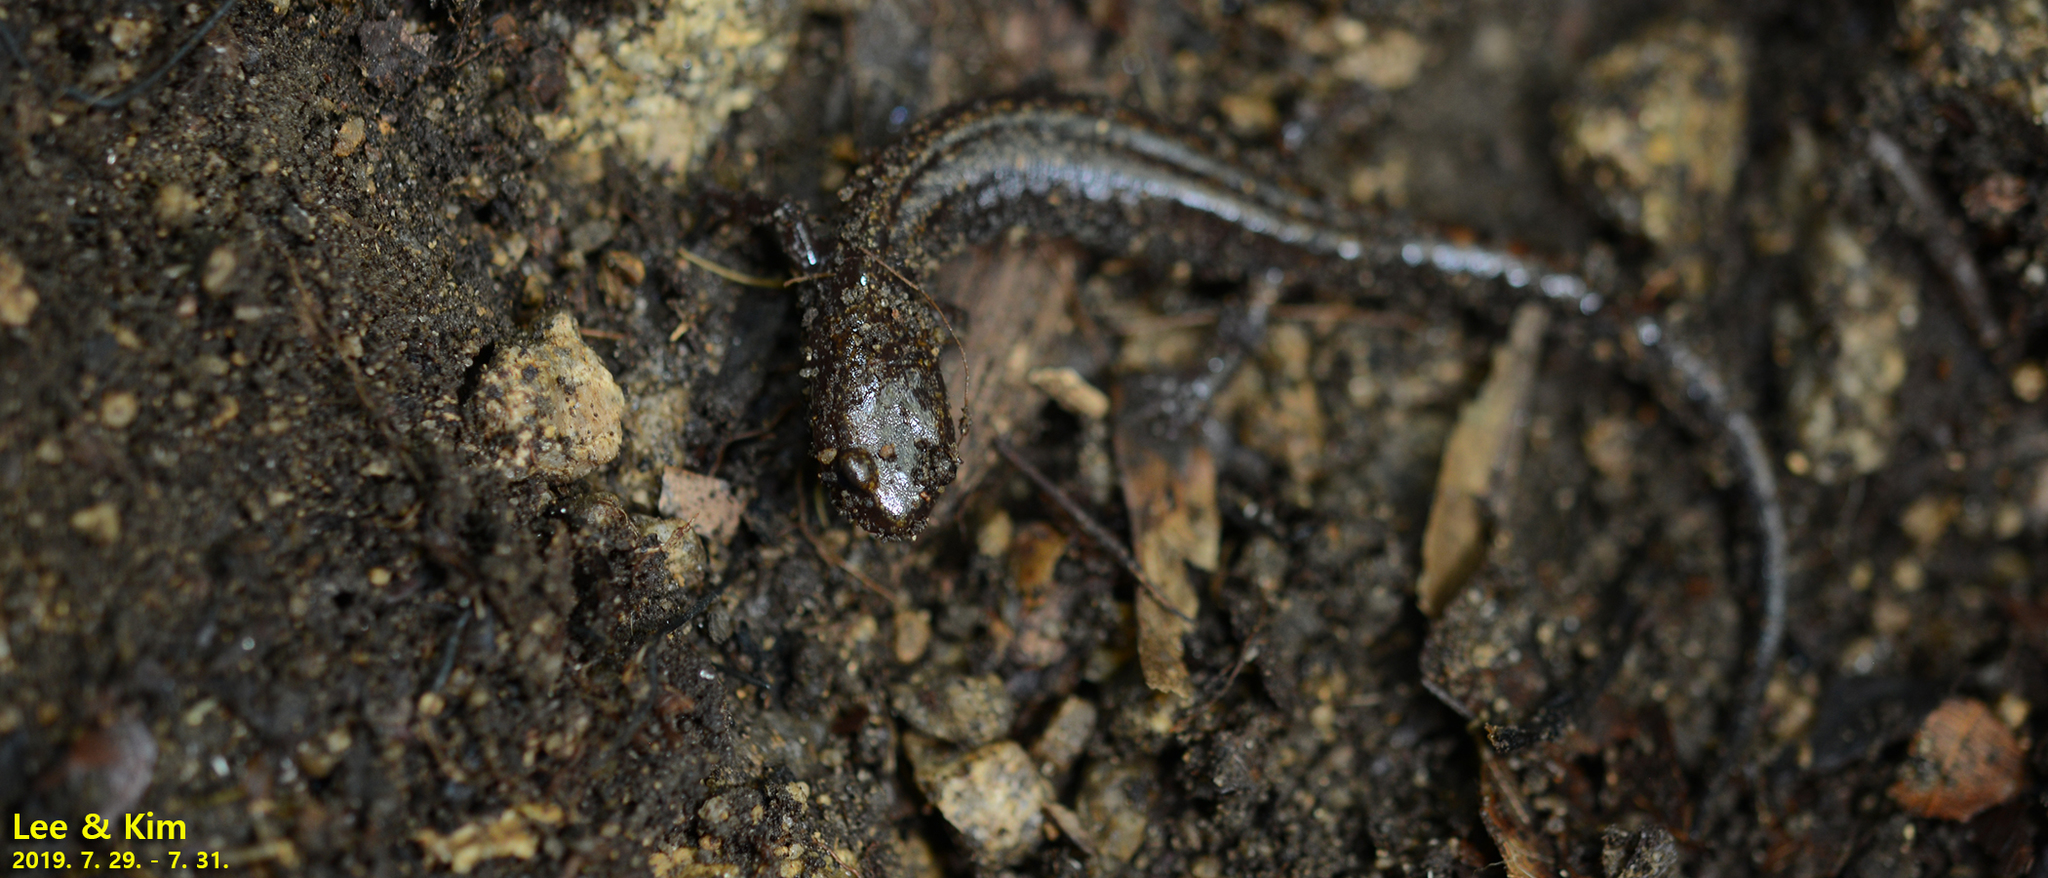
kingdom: Animalia
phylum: Chordata
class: Amphibia
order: Caudata
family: Plethodontidae
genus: Karsenia
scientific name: Karsenia koreana
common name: Korean crevice salamander
